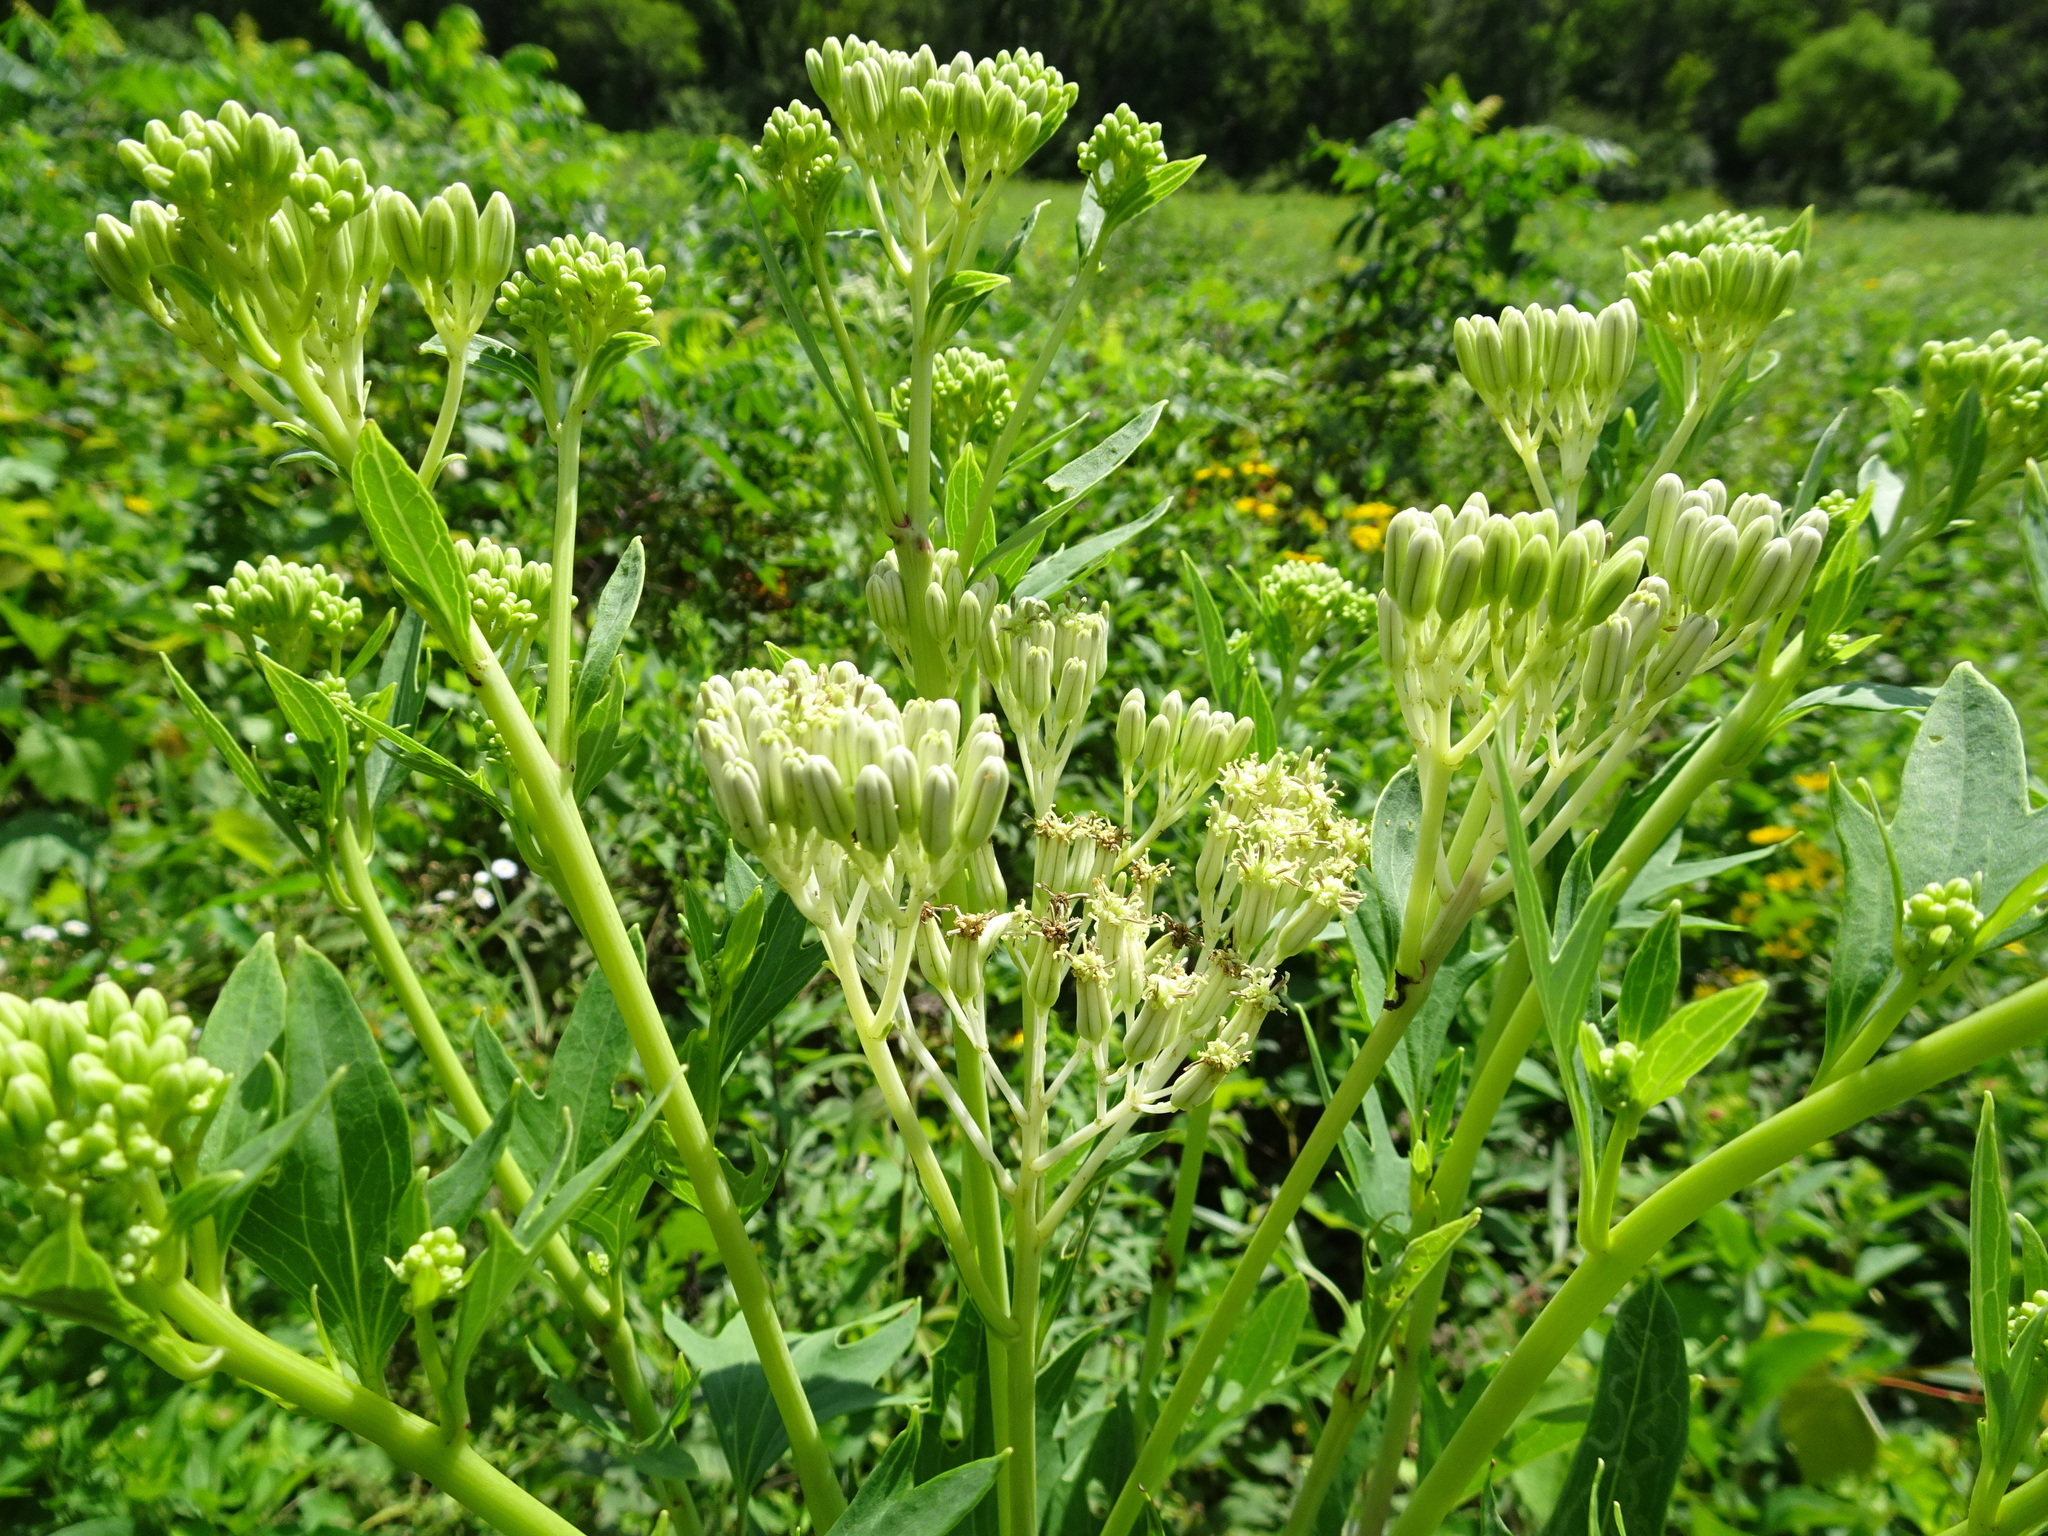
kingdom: Plantae
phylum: Tracheophyta
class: Magnoliopsida
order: Asterales
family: Asteraceae
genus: Arnoglossum
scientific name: Arnoglossum atriplicifolium
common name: Pale indian-plantain
